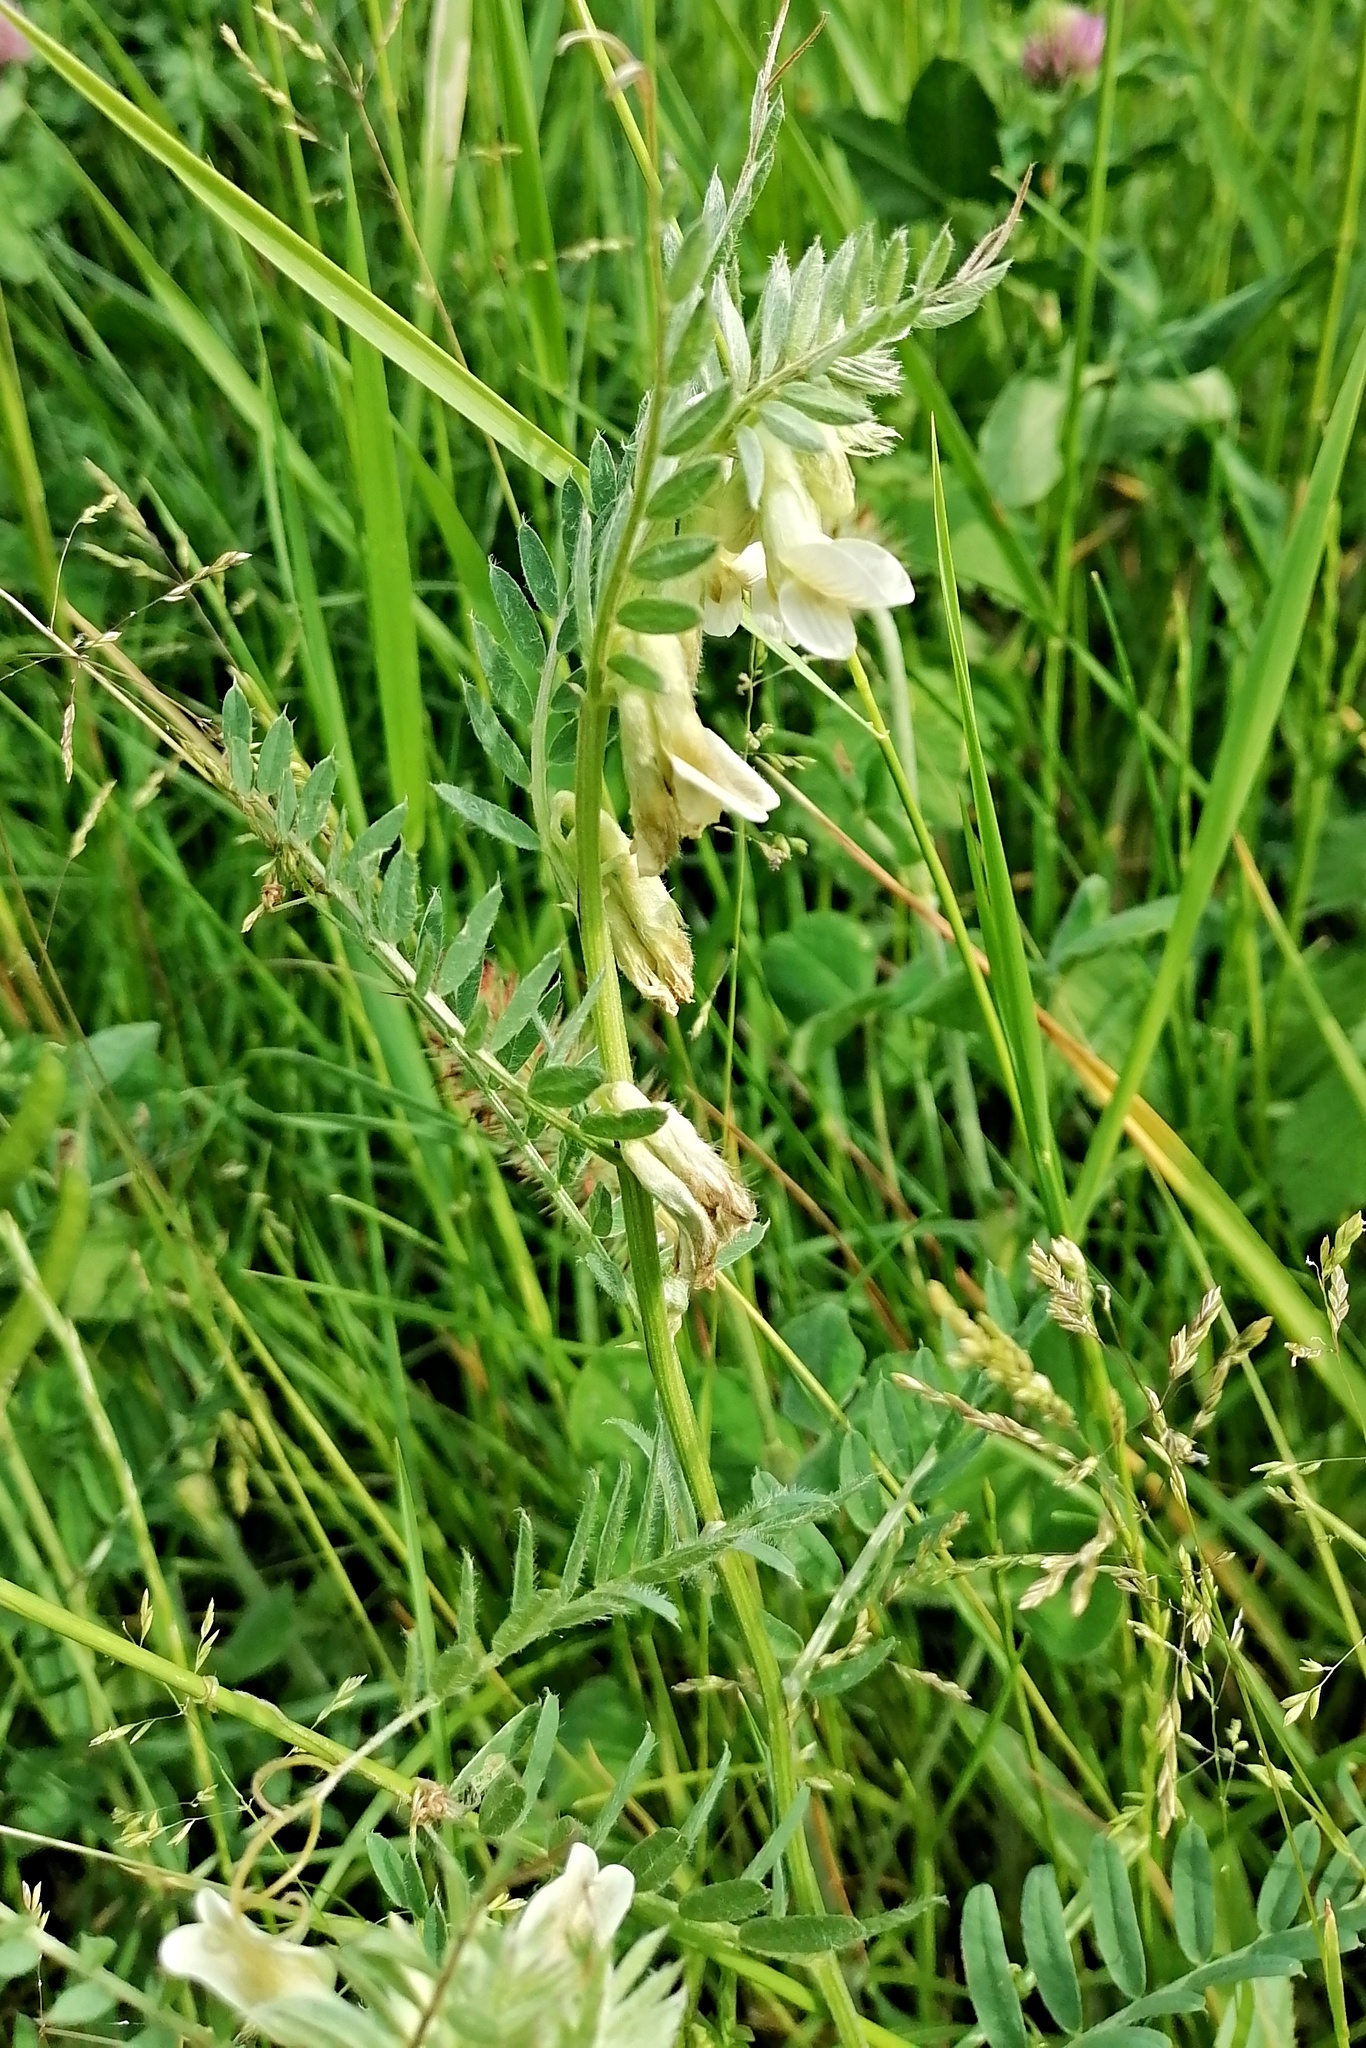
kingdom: Plantae
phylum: Tracheophyta
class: Magnoliopsida
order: Fabales
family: Fabaceae
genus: Vicia
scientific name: Vicia pannonica
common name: Hungarian vetch
